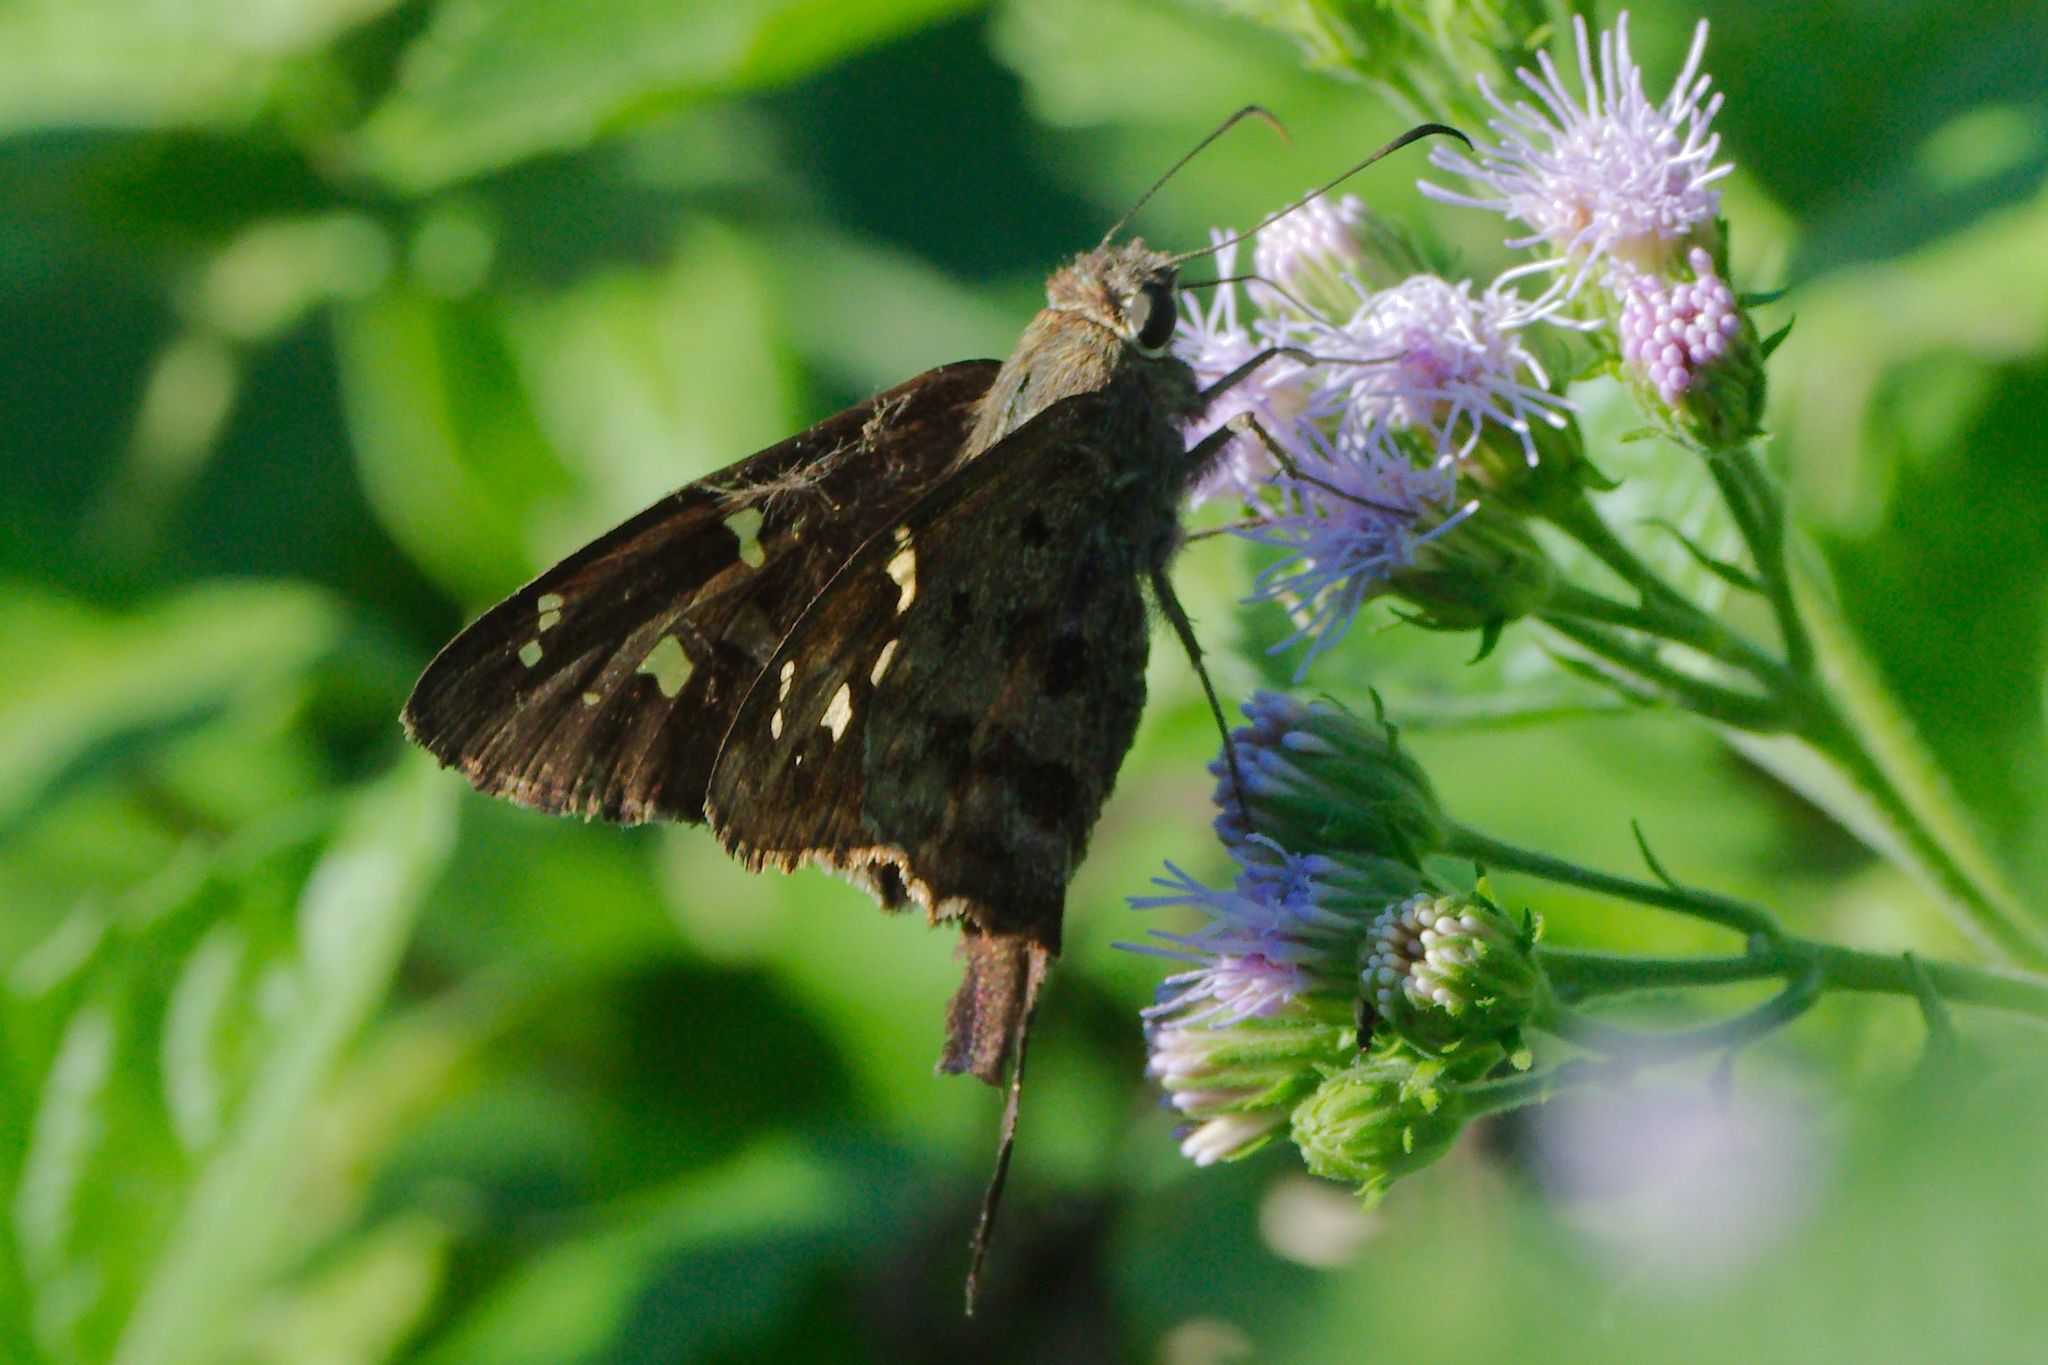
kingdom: Animalia
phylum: Arthropoda
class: Insecta
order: Lepidoptera
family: Hesperiidae
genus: Thorybes
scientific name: Thorybes
